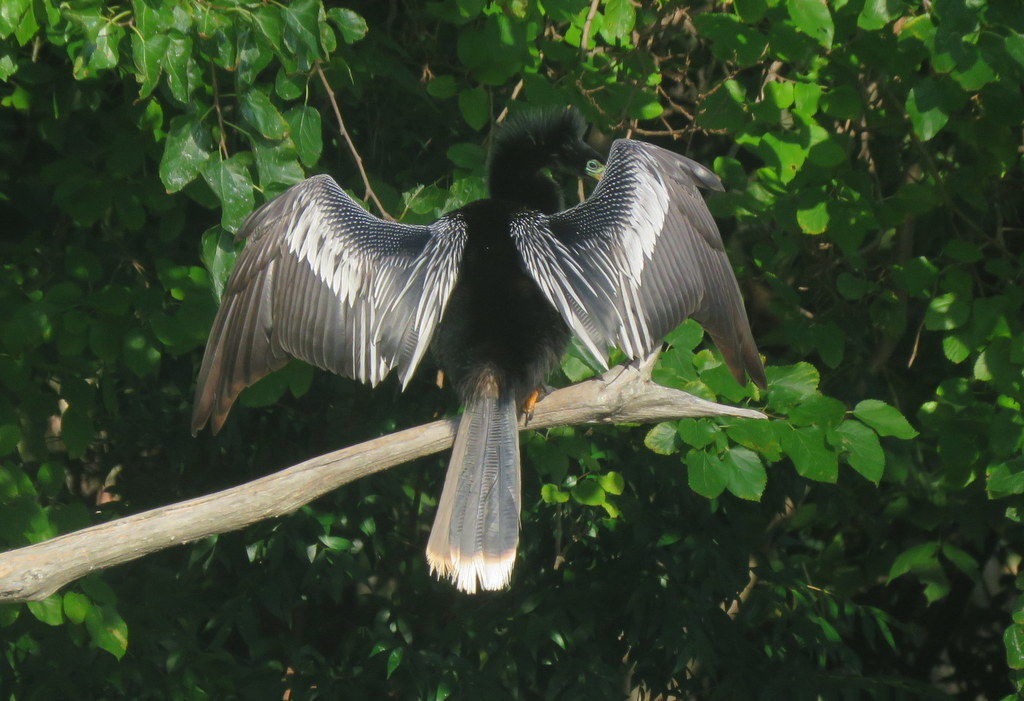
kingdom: Animalia
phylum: Chordata
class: Aves
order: Suliformes
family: Anhingidae
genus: Anhinga
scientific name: Anhinga anhinga
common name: Anhinga
